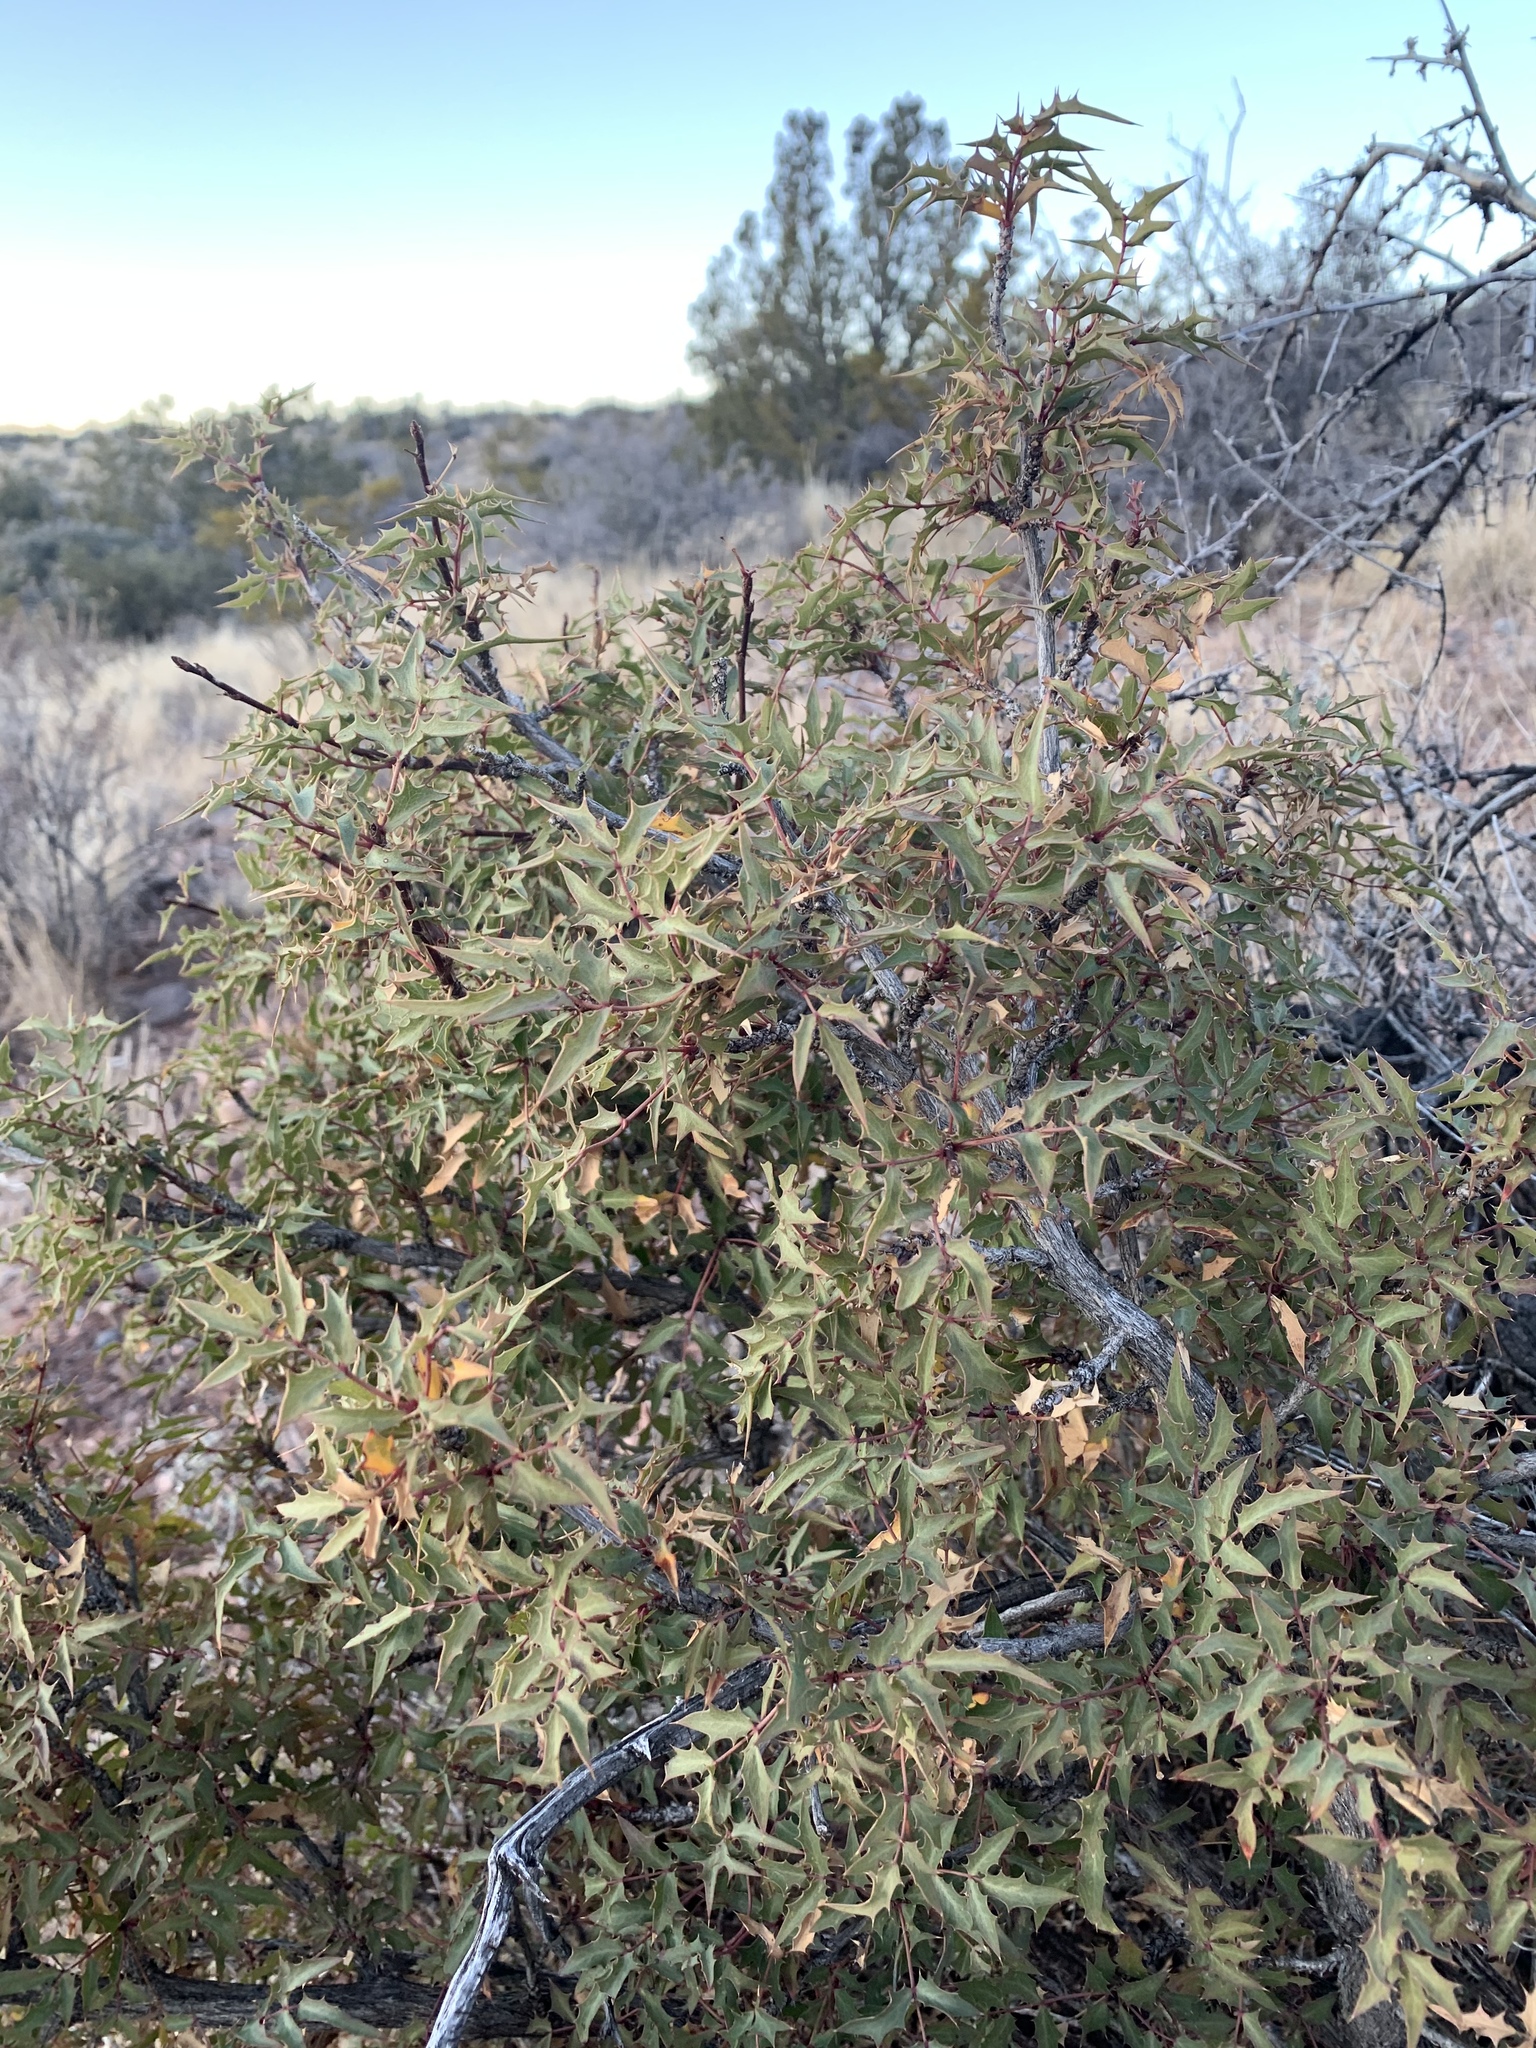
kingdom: Plantae
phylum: Tracheophyta
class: Magnoliopsida
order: Ranunculales
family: Berberidaceae
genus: Alloberberis
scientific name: Alloberberis haematocarpa
